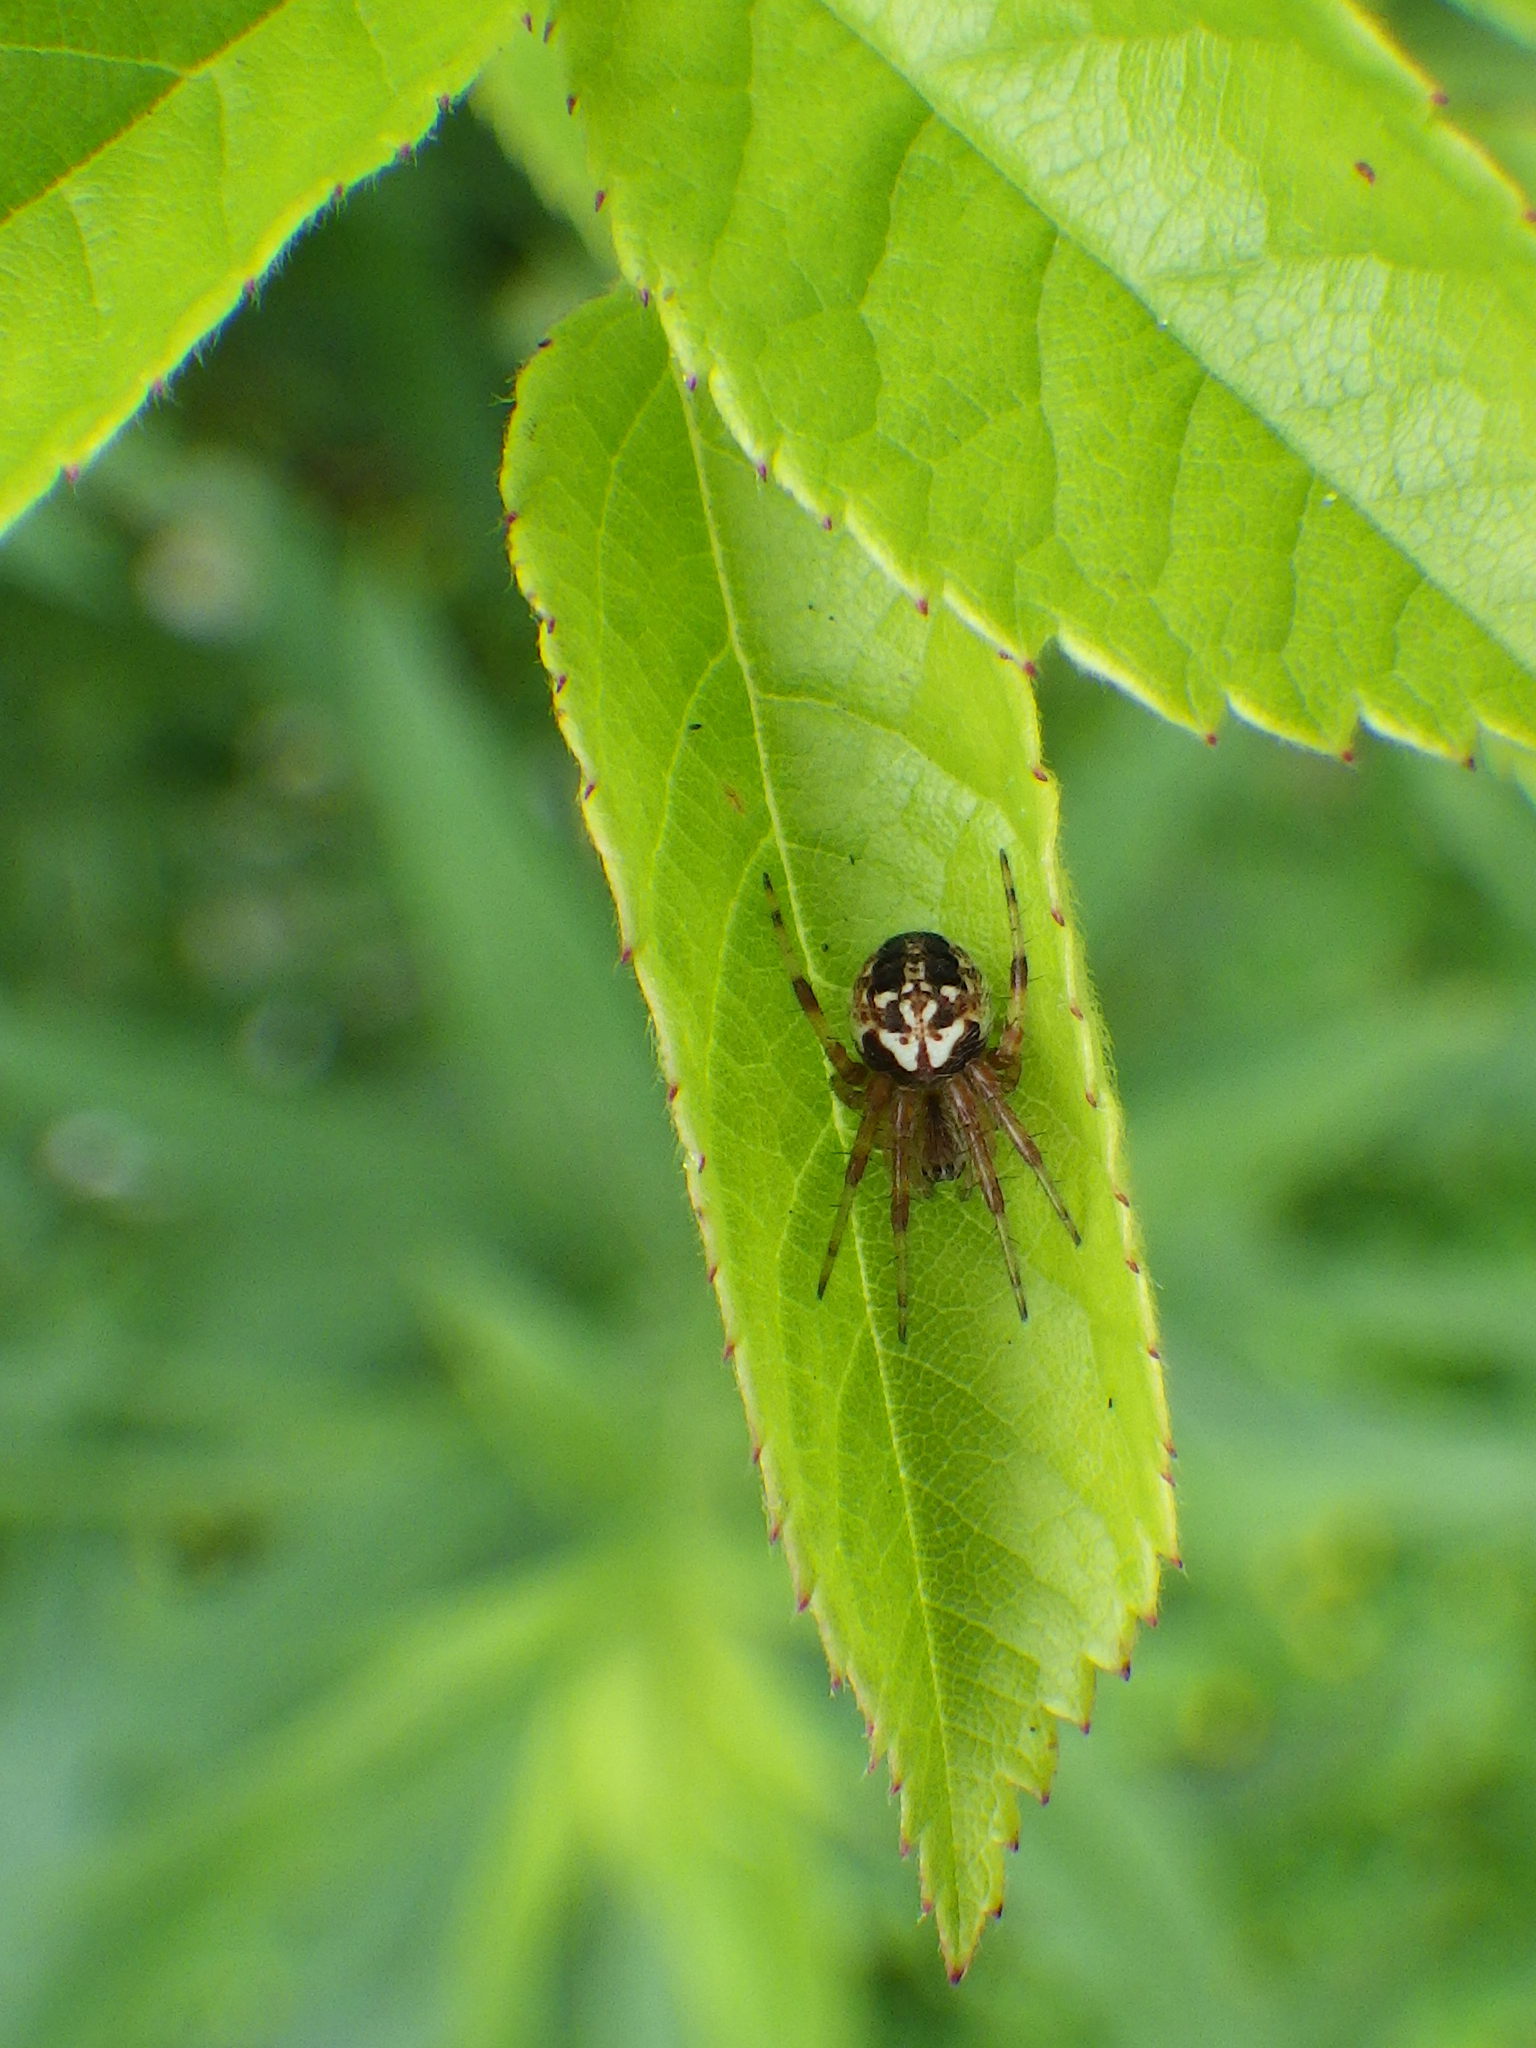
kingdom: Animalia
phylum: Arthropoda
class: Arachnida
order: Araneae
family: Araneidae
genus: Neoscona
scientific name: Neoscona arabesca
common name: Orb weavers
